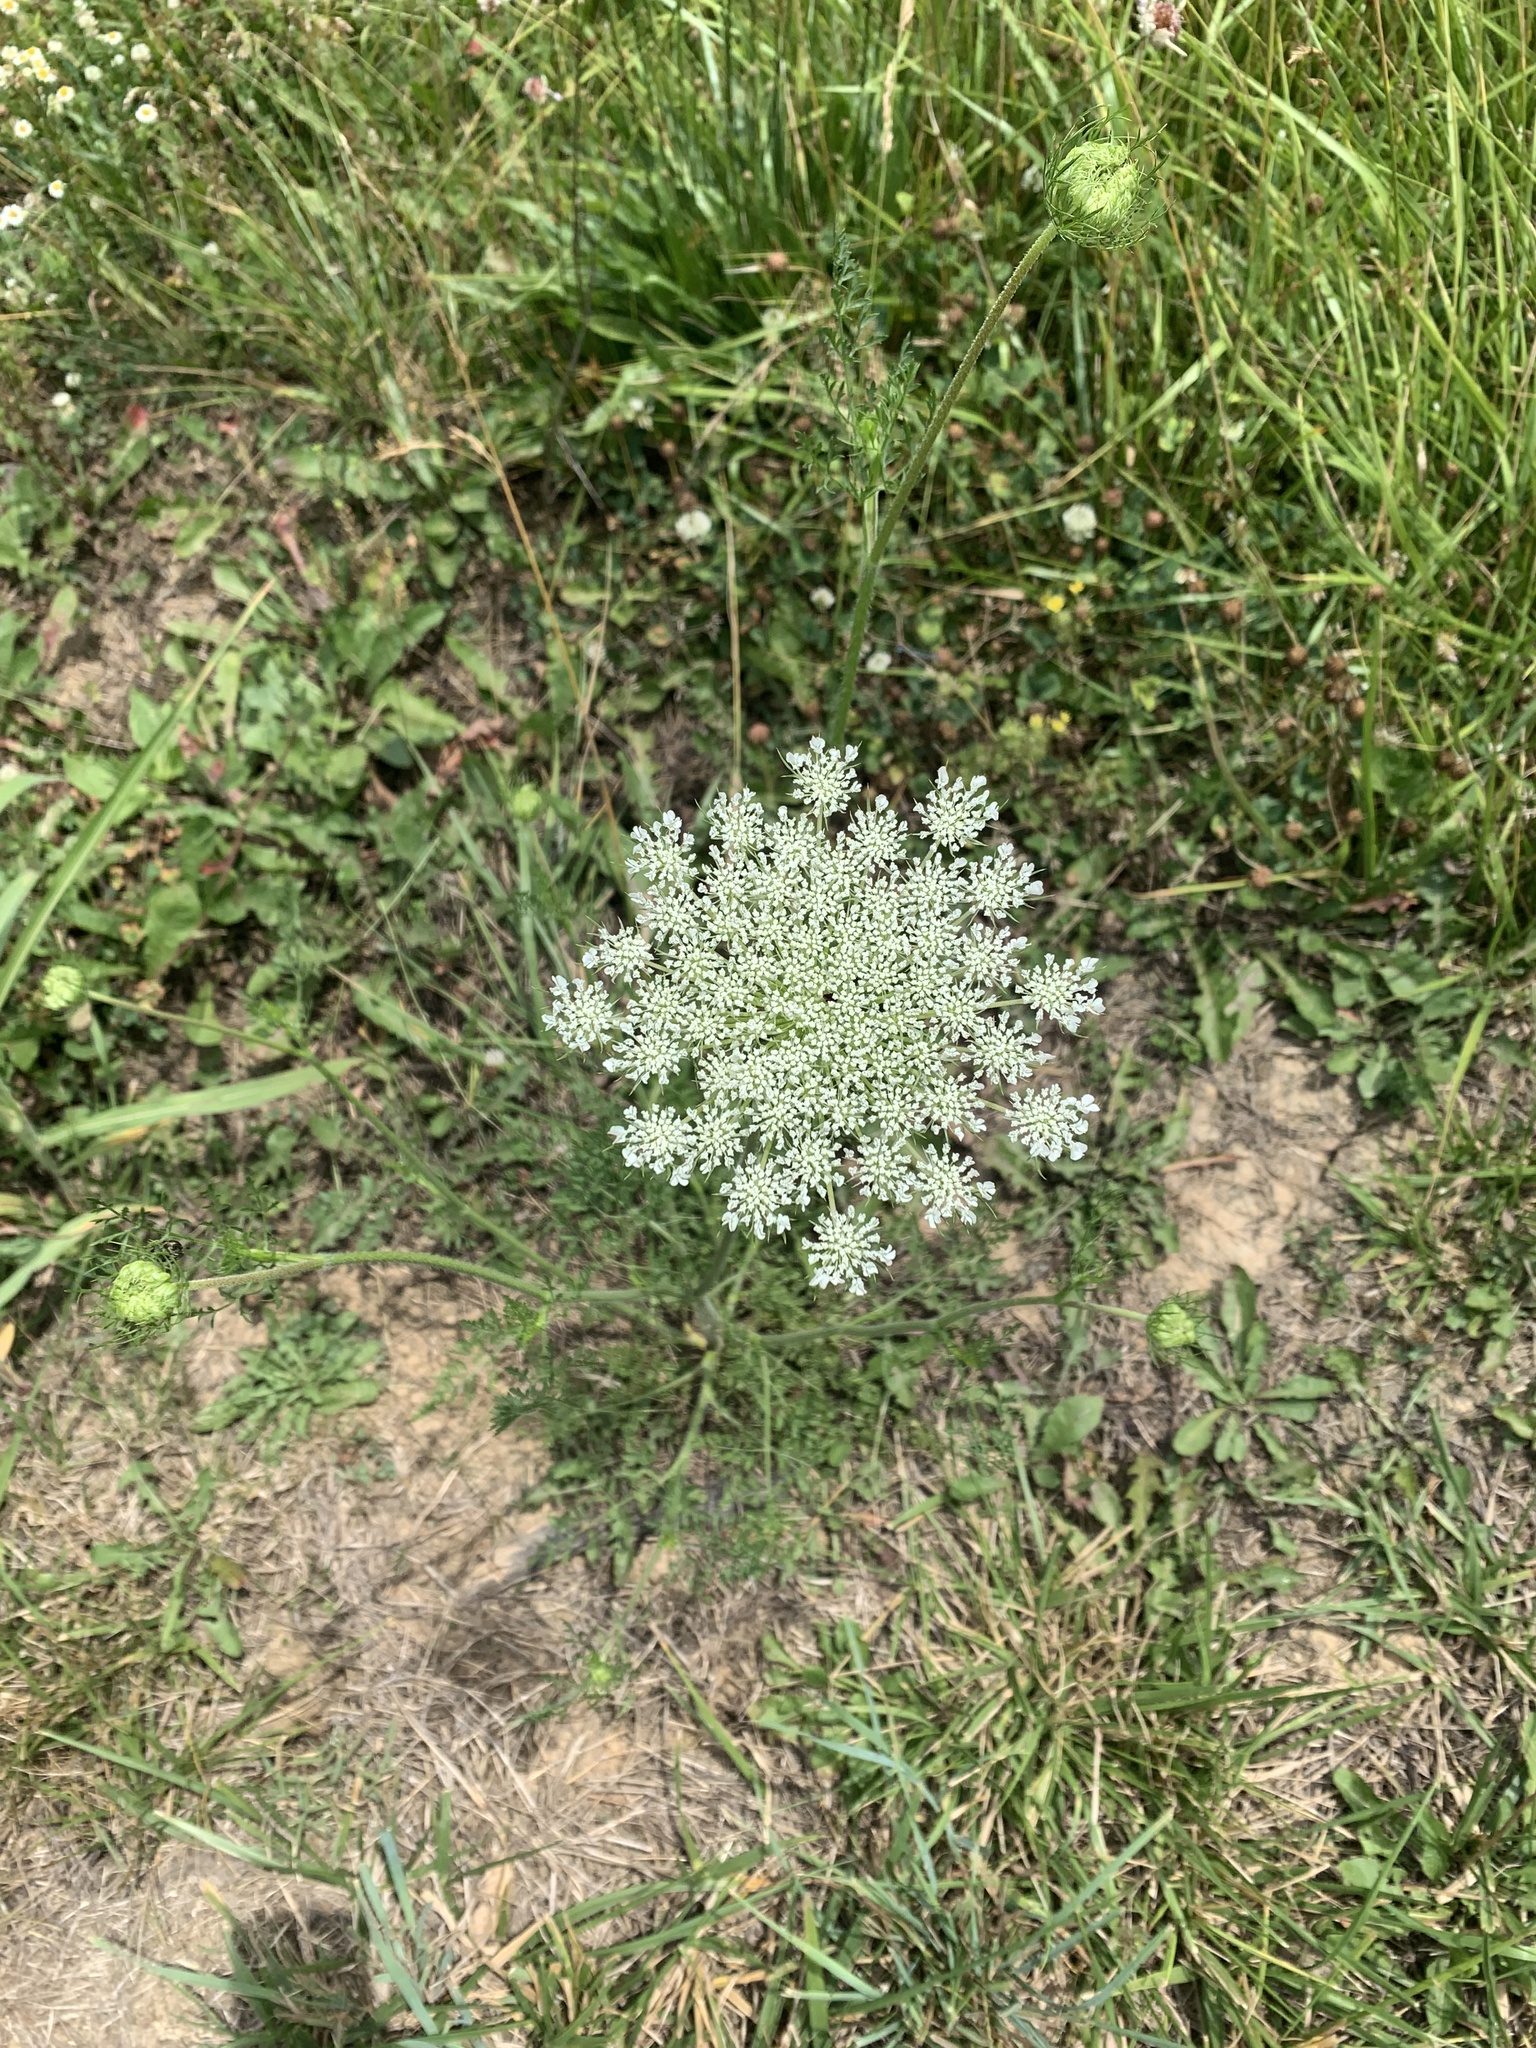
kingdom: Plantae
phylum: Tracheophyta
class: Magnoliopsida
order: Apiales
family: Apiaceae
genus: Daucus
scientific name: Daucus carota
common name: Wild carrot
